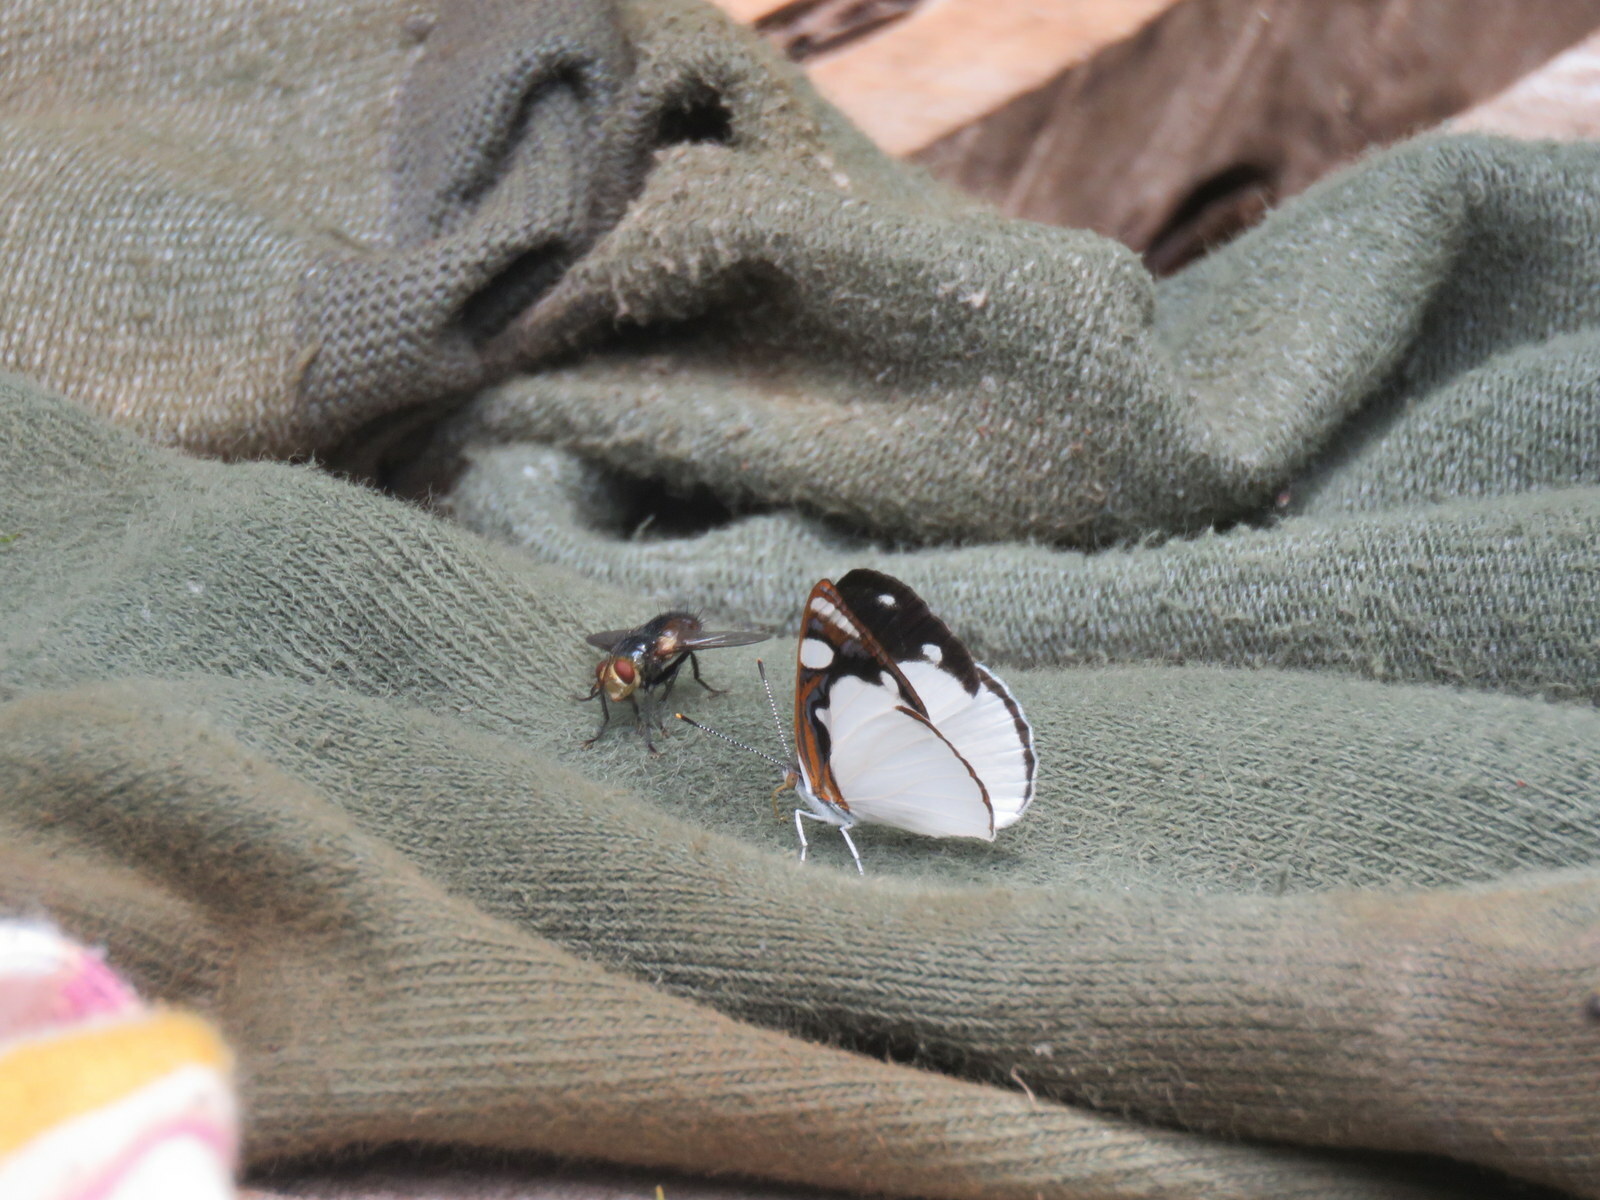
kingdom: Animalia
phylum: Arthropoda
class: Insecta
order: Lepidoptera
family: Nymphalidae
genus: Dynamine
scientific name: Dynamine coenus
